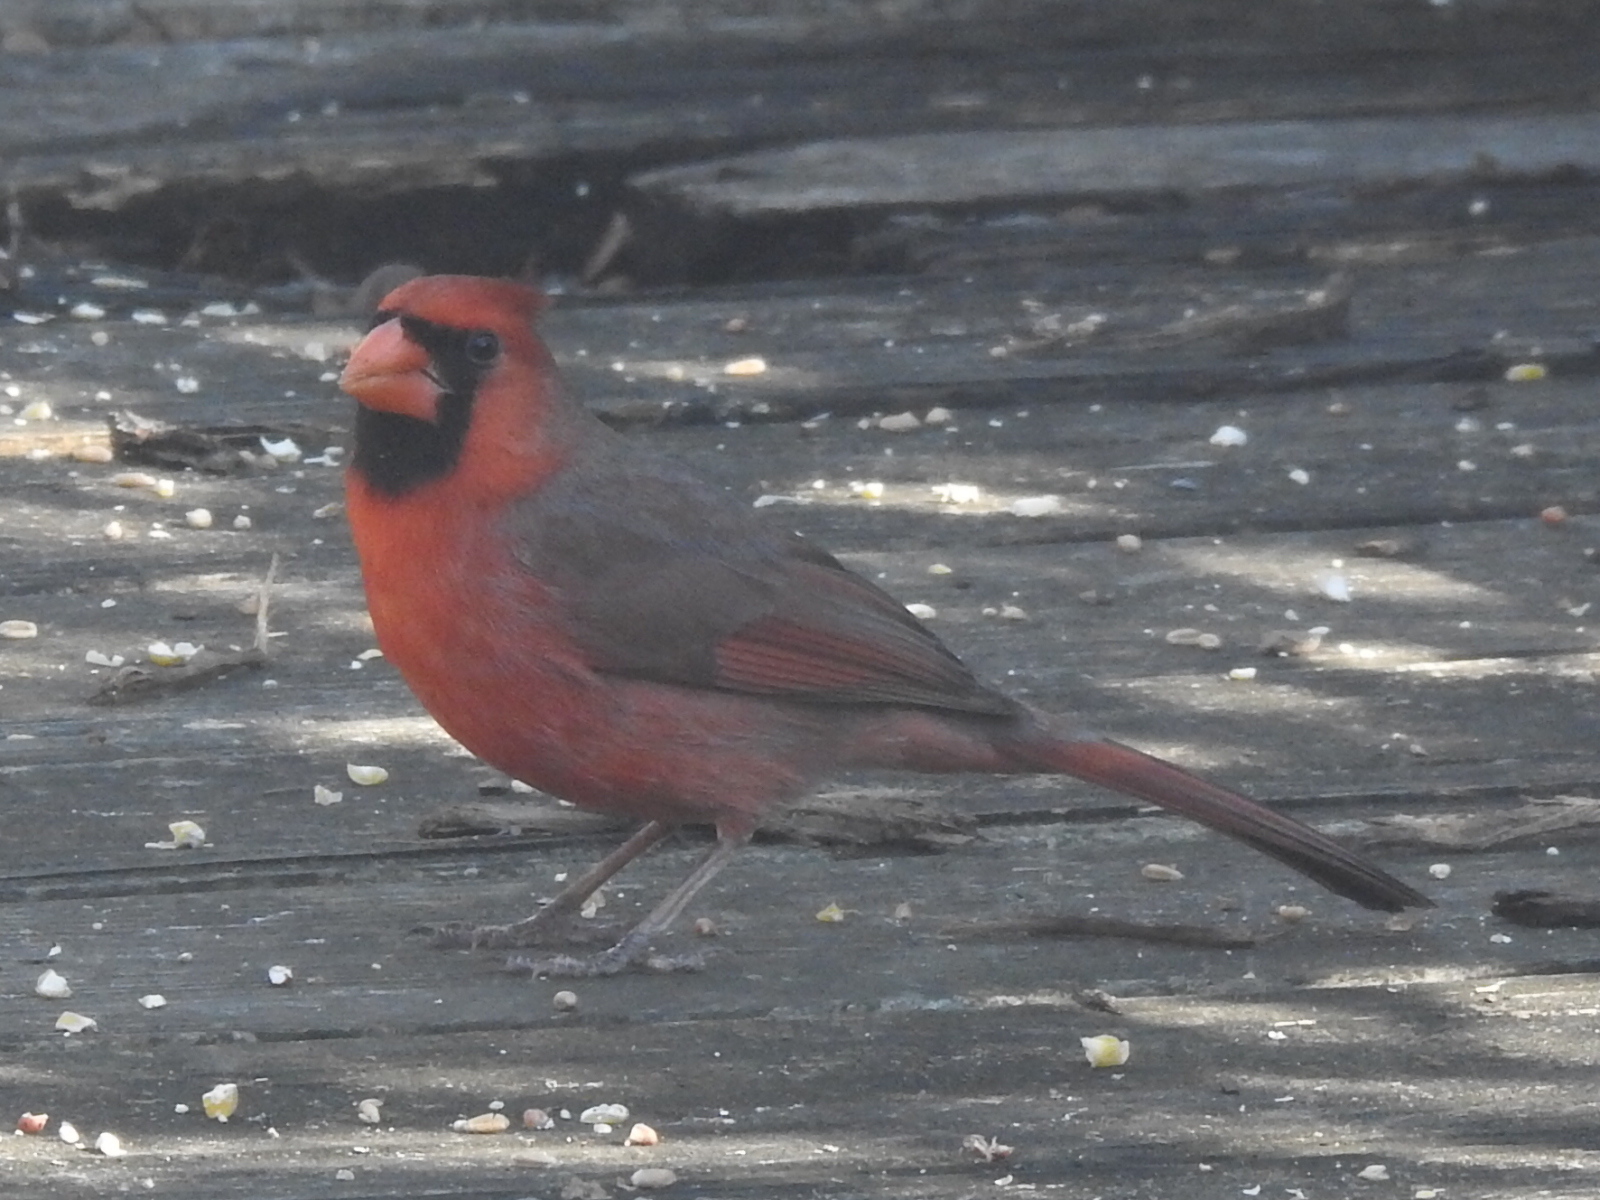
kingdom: Animalia
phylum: Chordata
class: Aves
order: Passeriformes
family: Cardinalidae
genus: Cardinalis
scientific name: Cardinalis cardinalis
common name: Northern cardinal
